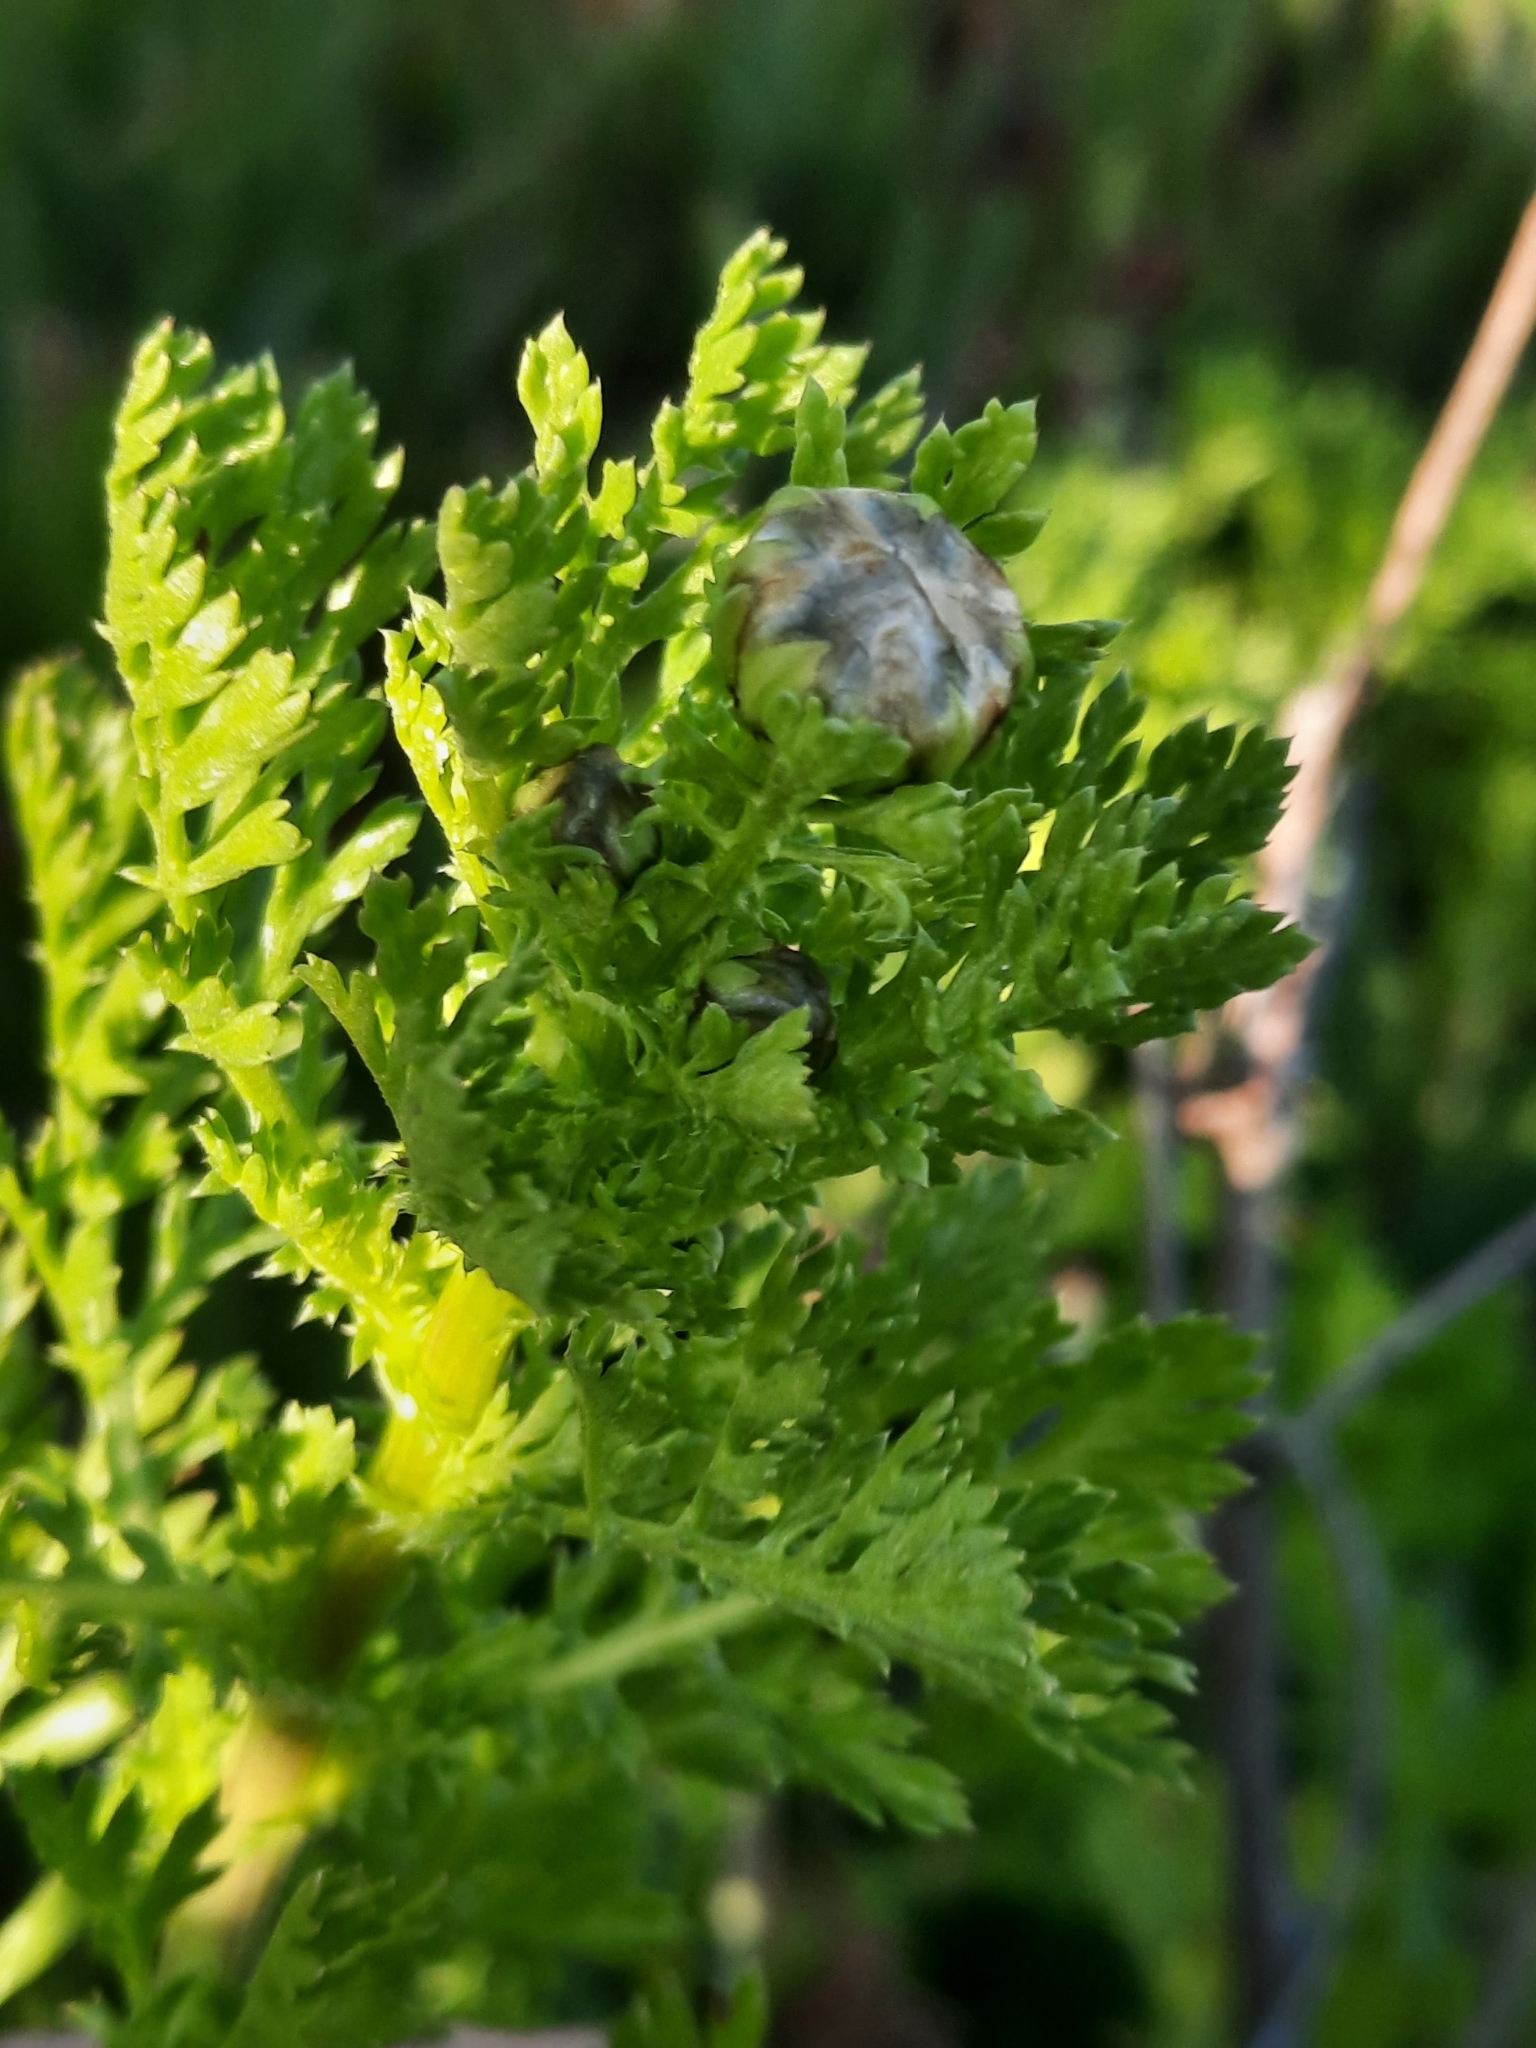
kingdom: Plantae
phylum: Tracheophyta
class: Magnoliopsida
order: Asterales
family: Asteraceae
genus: Glebionis
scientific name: Glebionis coronaria
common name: Crowndaisy
